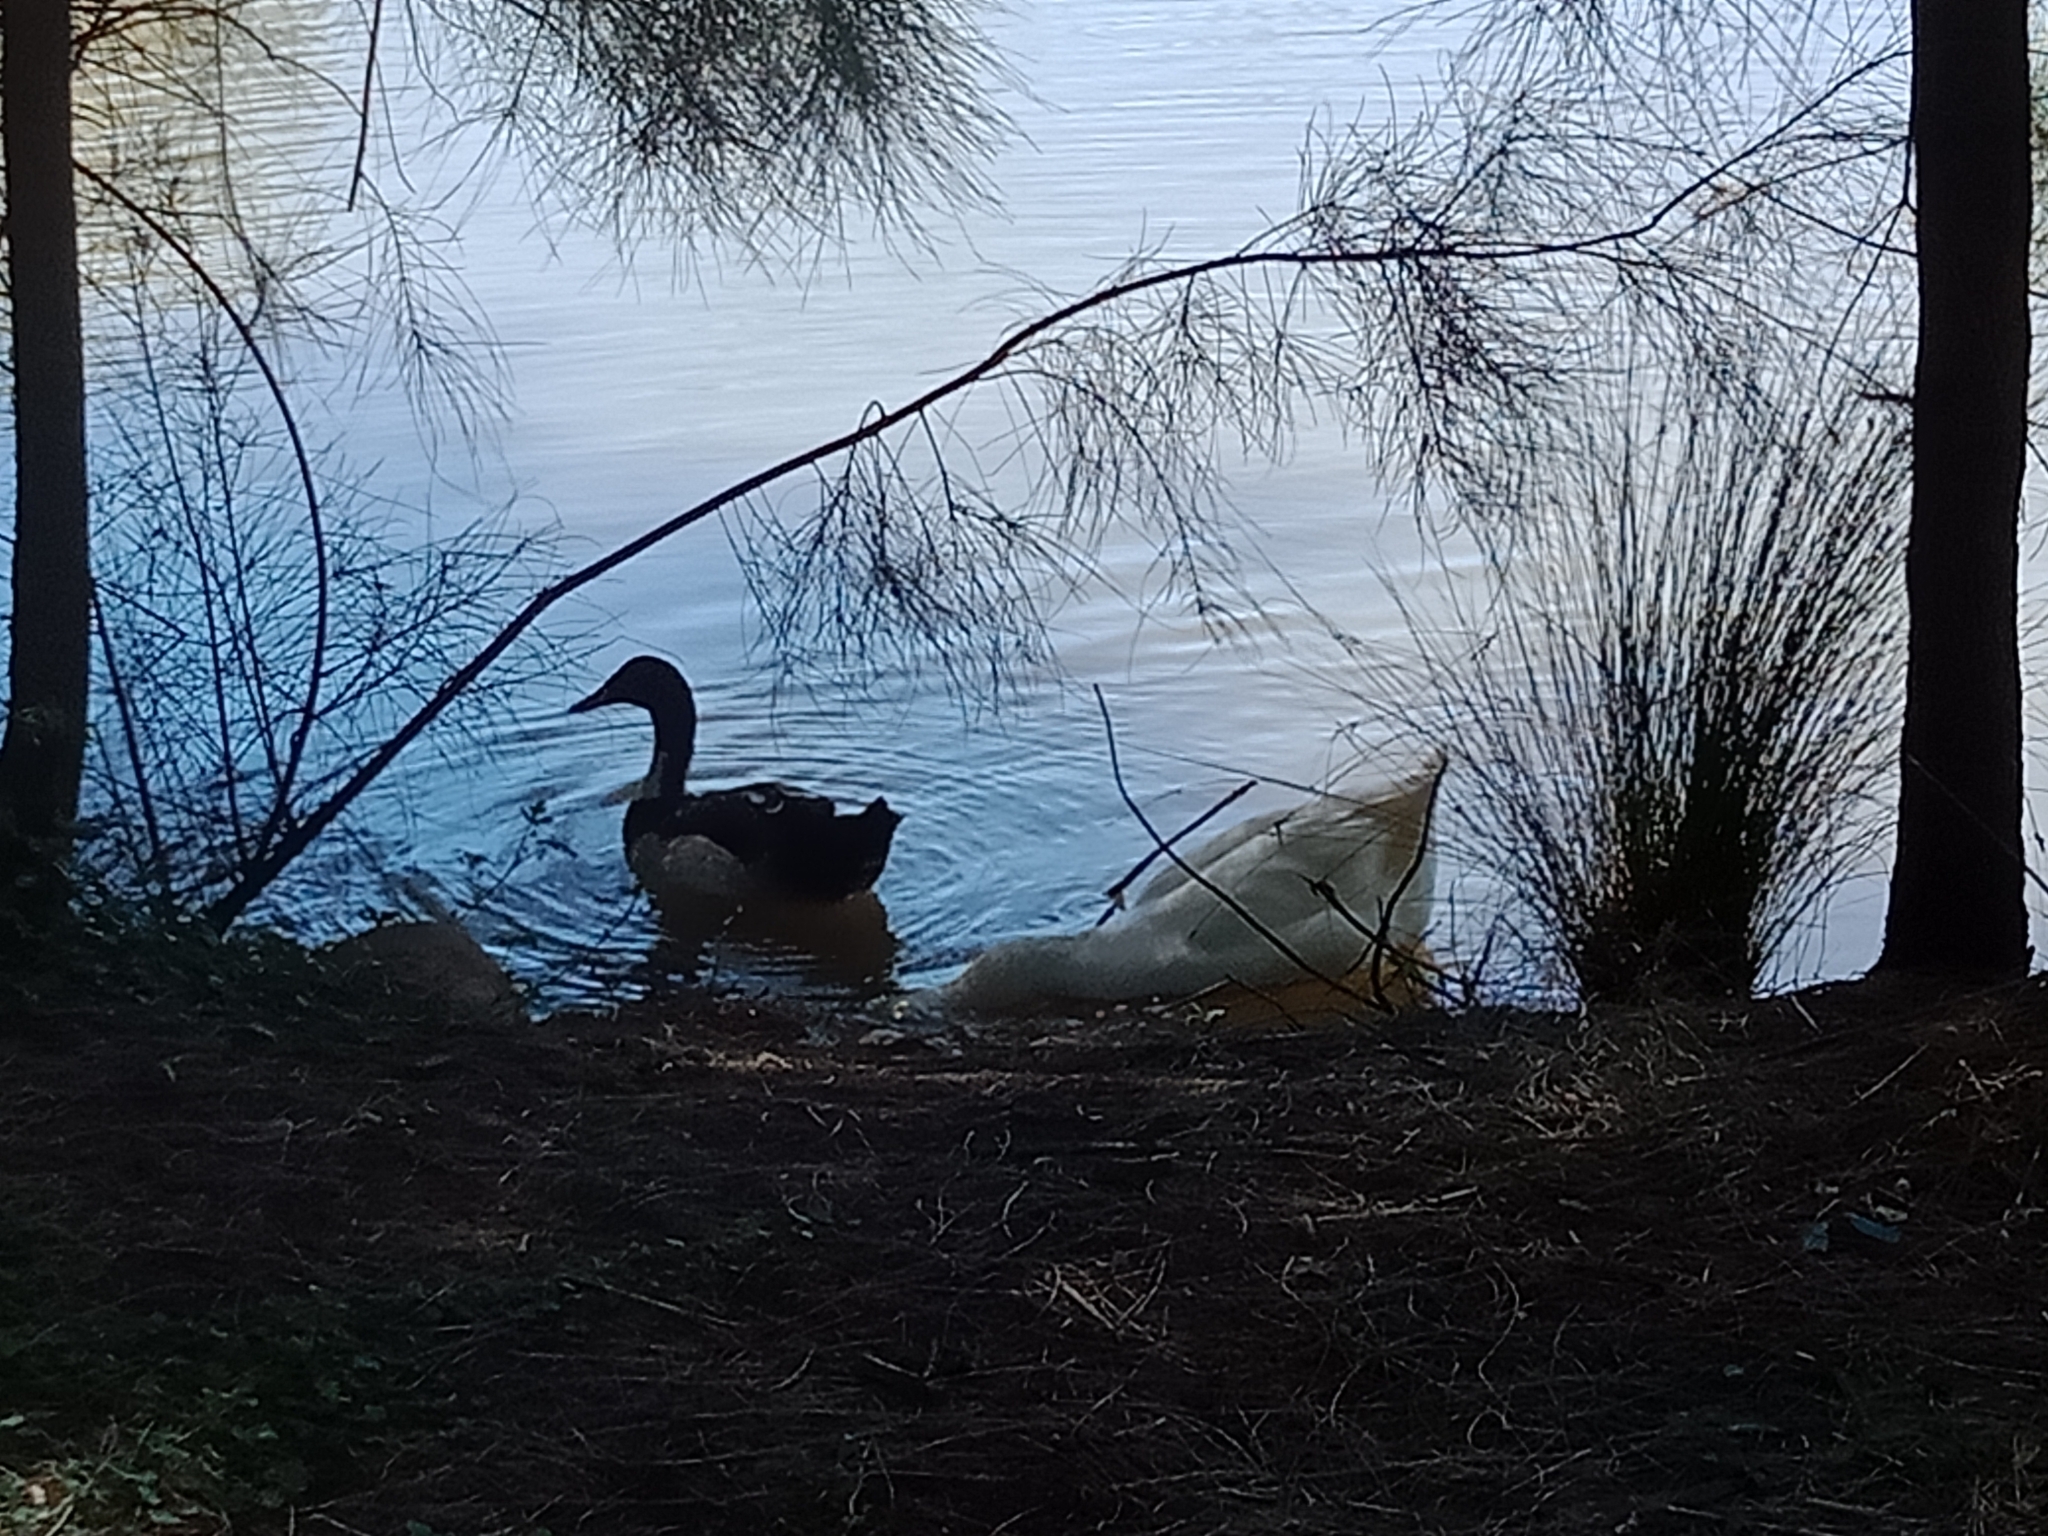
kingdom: Animalia
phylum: Chordata
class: Aves
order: Anseriformes
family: Anatidae
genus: Anas
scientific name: Anas platyrhynchos
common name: Mallard
